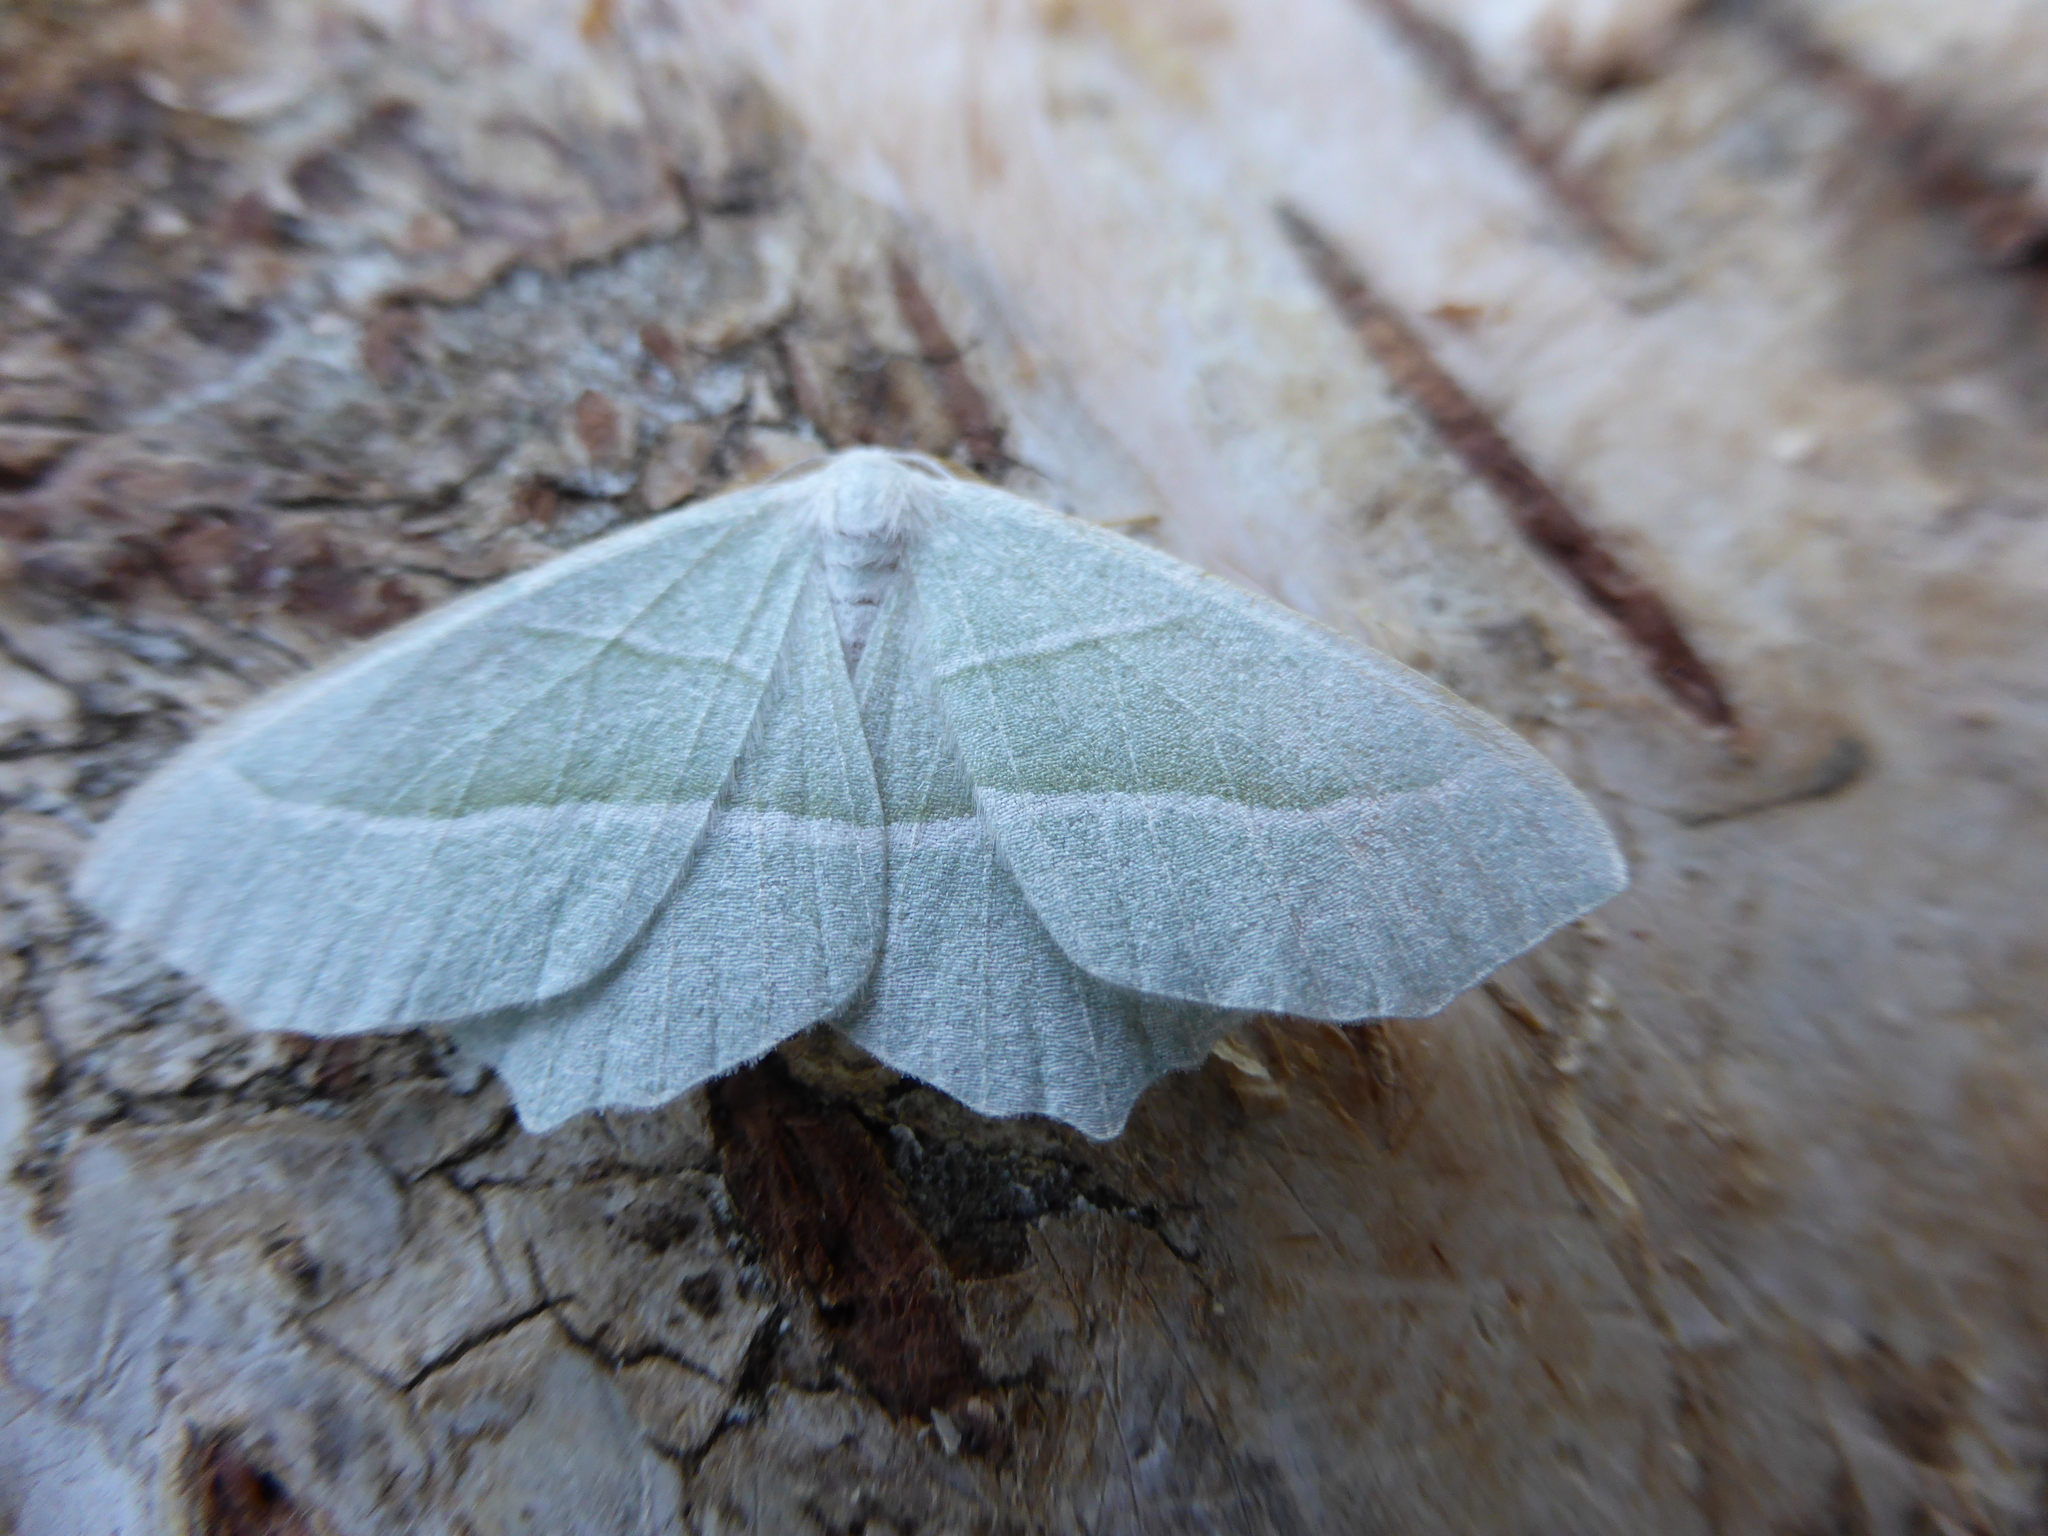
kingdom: Animalia
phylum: Arthropoda
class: Insecta
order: Lepidoptera
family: Geometridae
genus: Campaea
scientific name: Campaea margaritaria
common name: Light emerald
